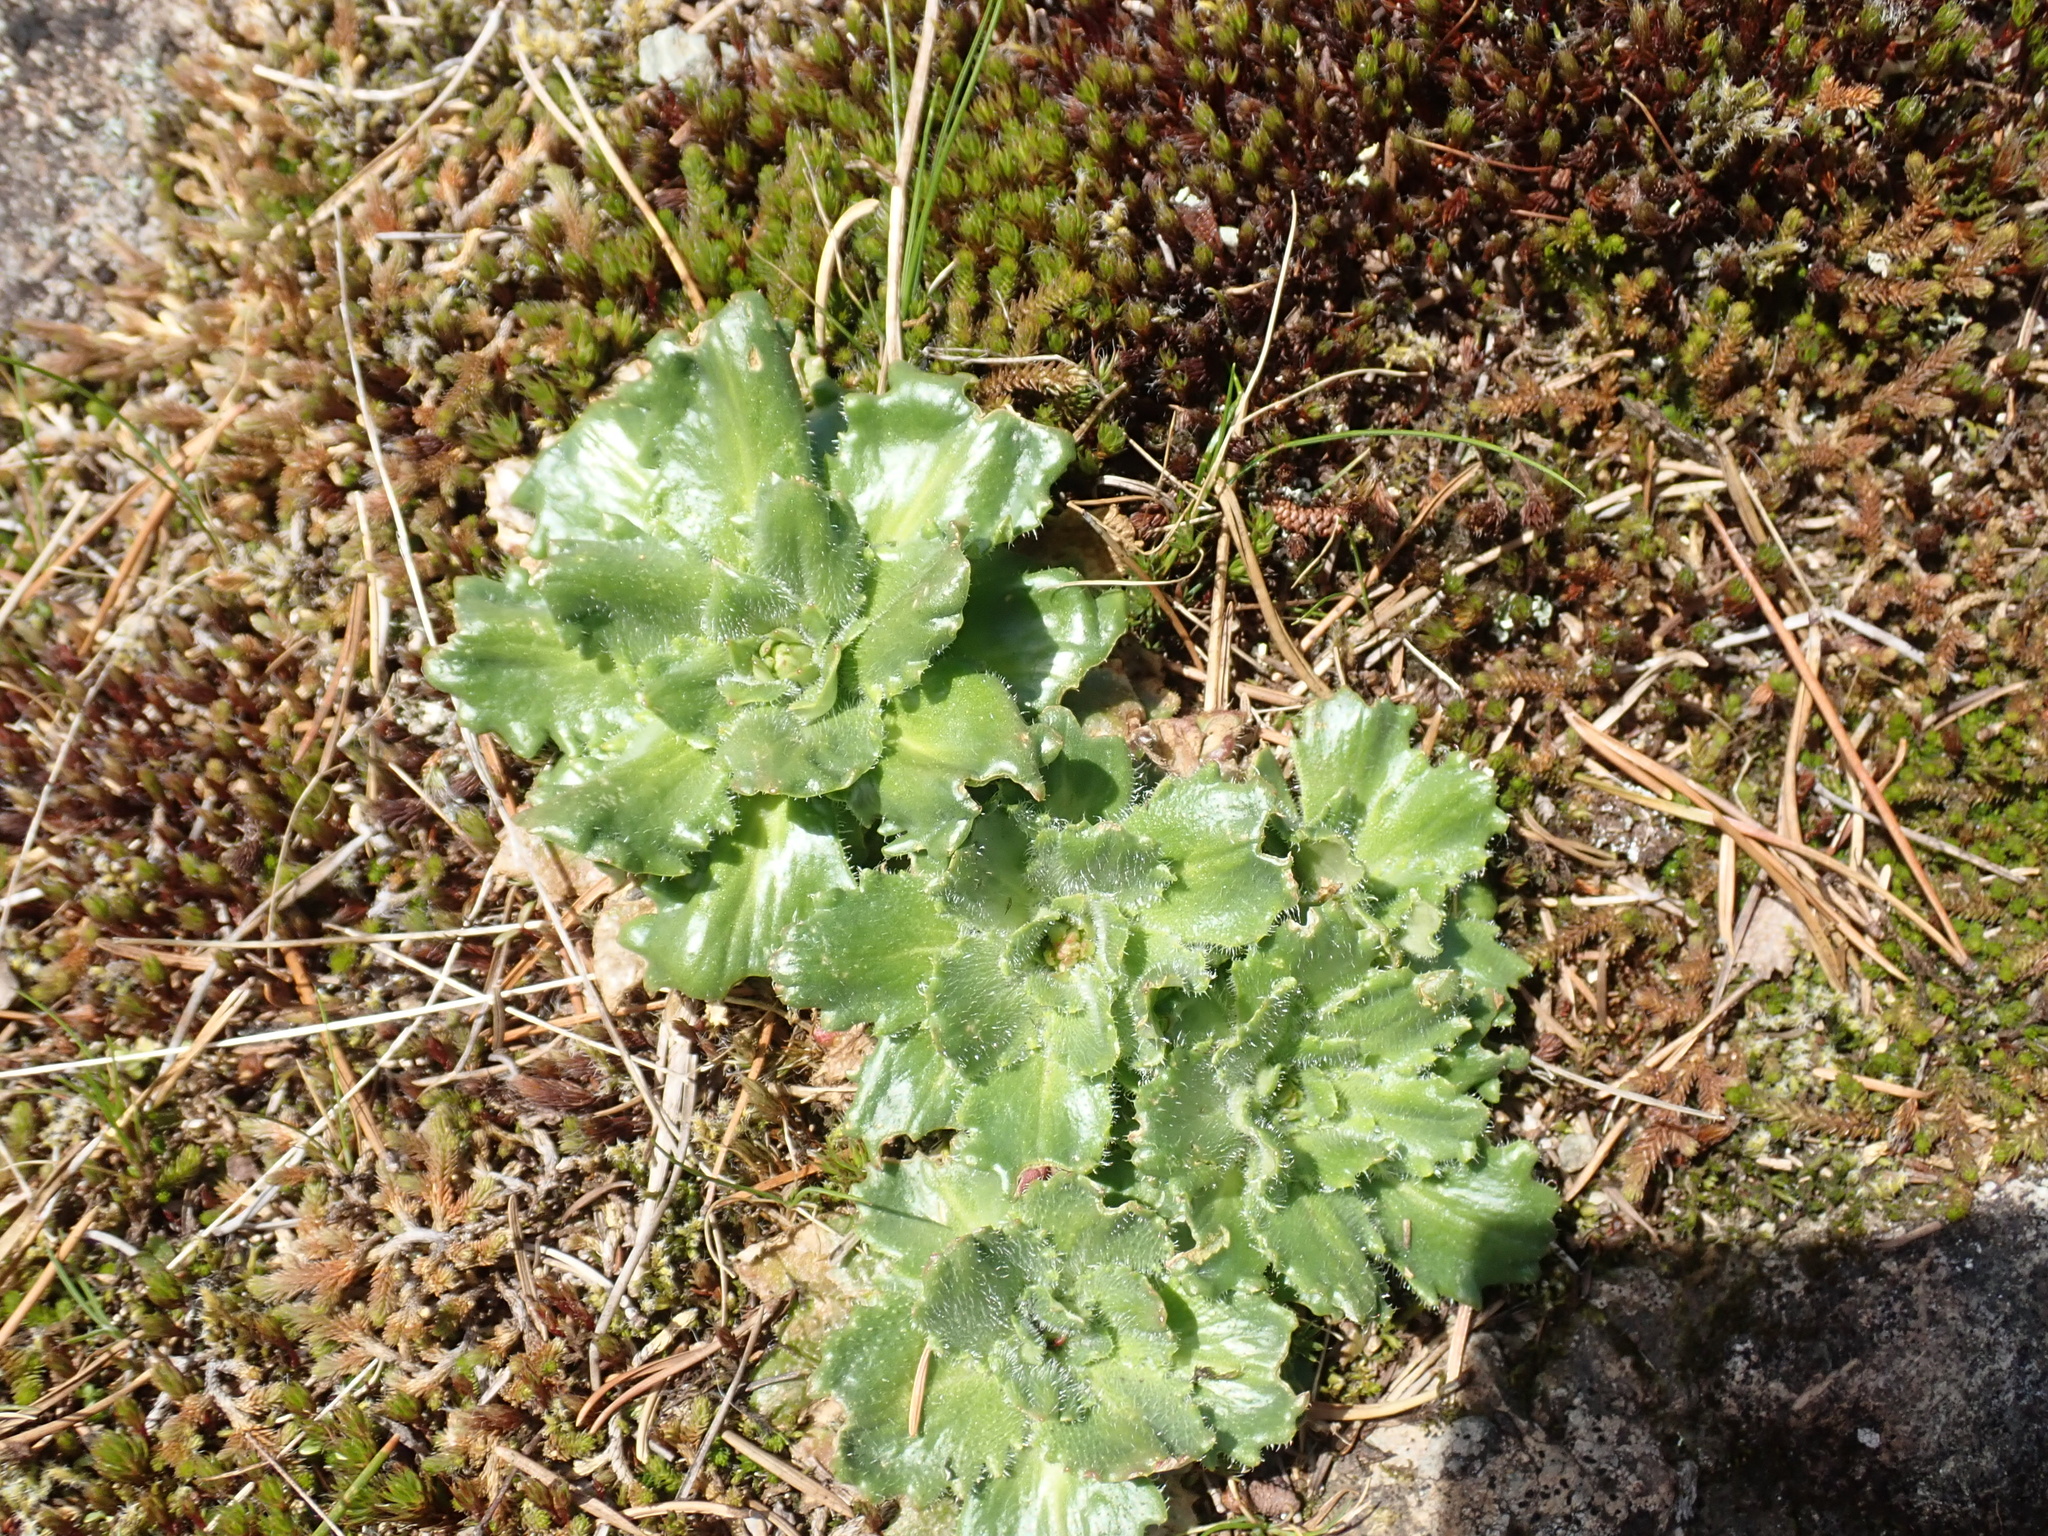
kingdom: Plantae
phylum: Tracheophyta
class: Magnoliopsida
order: Saxifragales
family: Saxifragaceae
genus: Micranthes
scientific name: Micranthes ferruginea
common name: Rusty saxifrage
